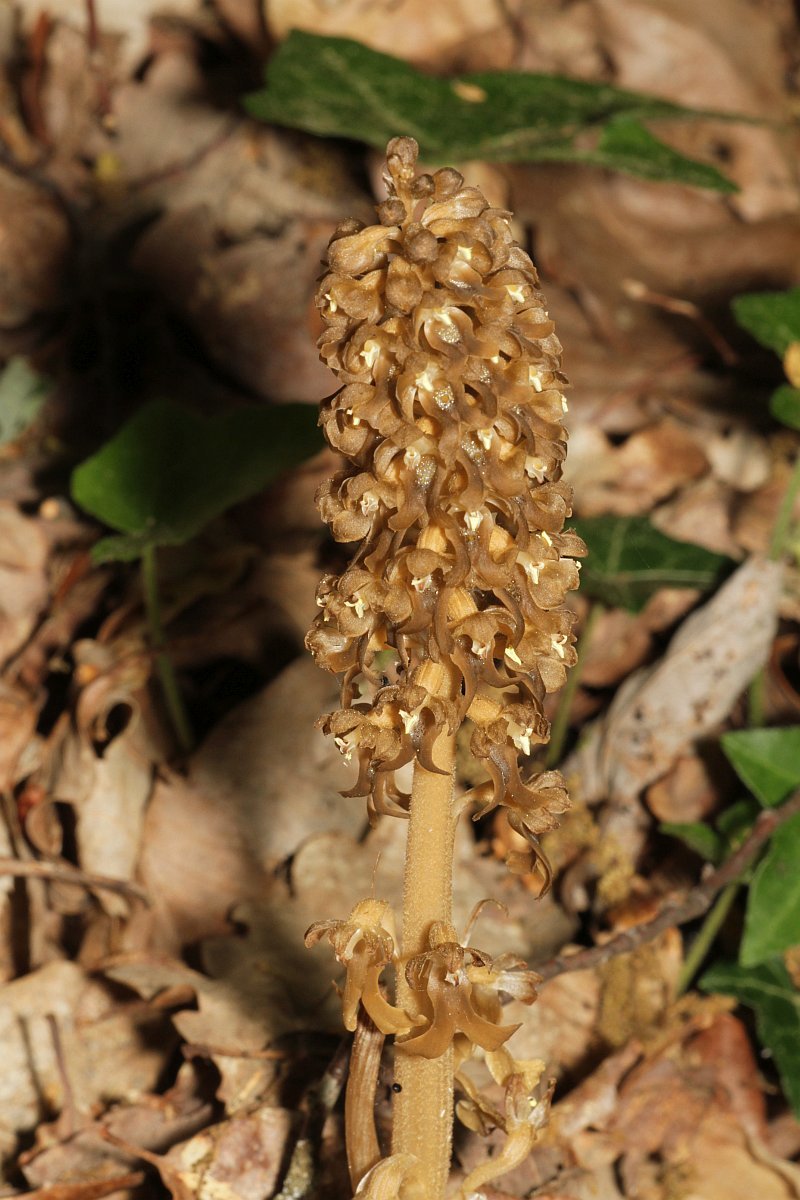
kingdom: Plantae
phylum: Tracheophyta
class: Liliopsida
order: Asparagales
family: Orchidaceae
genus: Neottia
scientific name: Neottia nidus-avis
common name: Bird's-nest orchid
